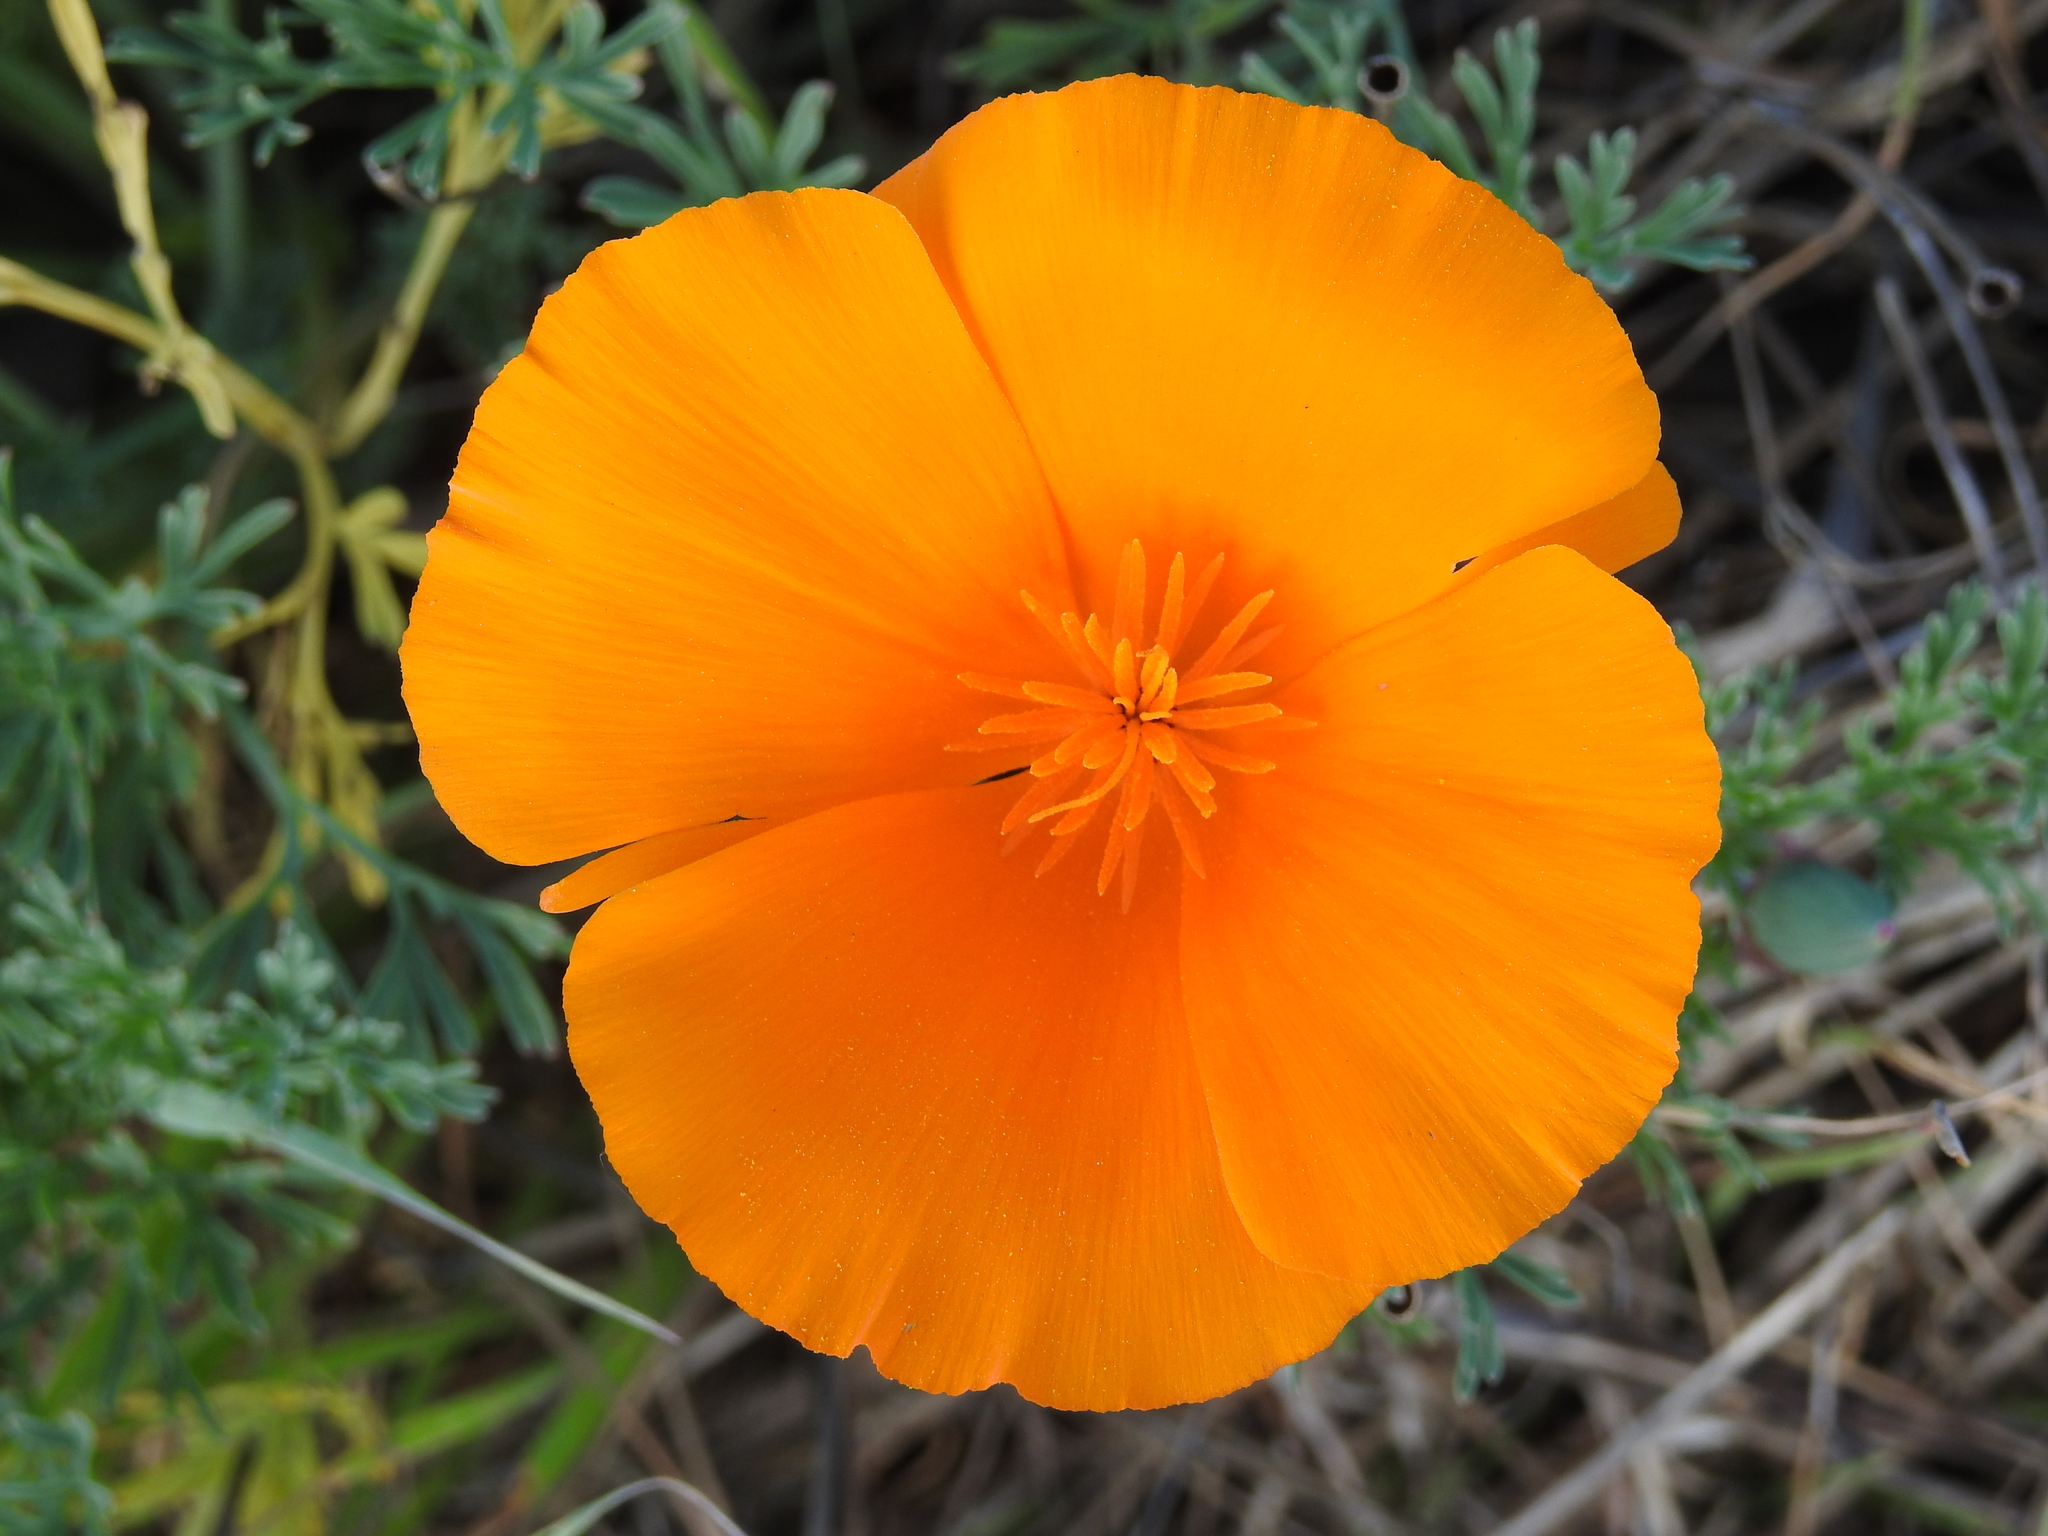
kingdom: Plantae
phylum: Tracheophyta
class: Magnoliopsida
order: Ranunculales
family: Papaveraceae
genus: Eschscholzia
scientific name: Eschscholzia californica
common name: California poppy
